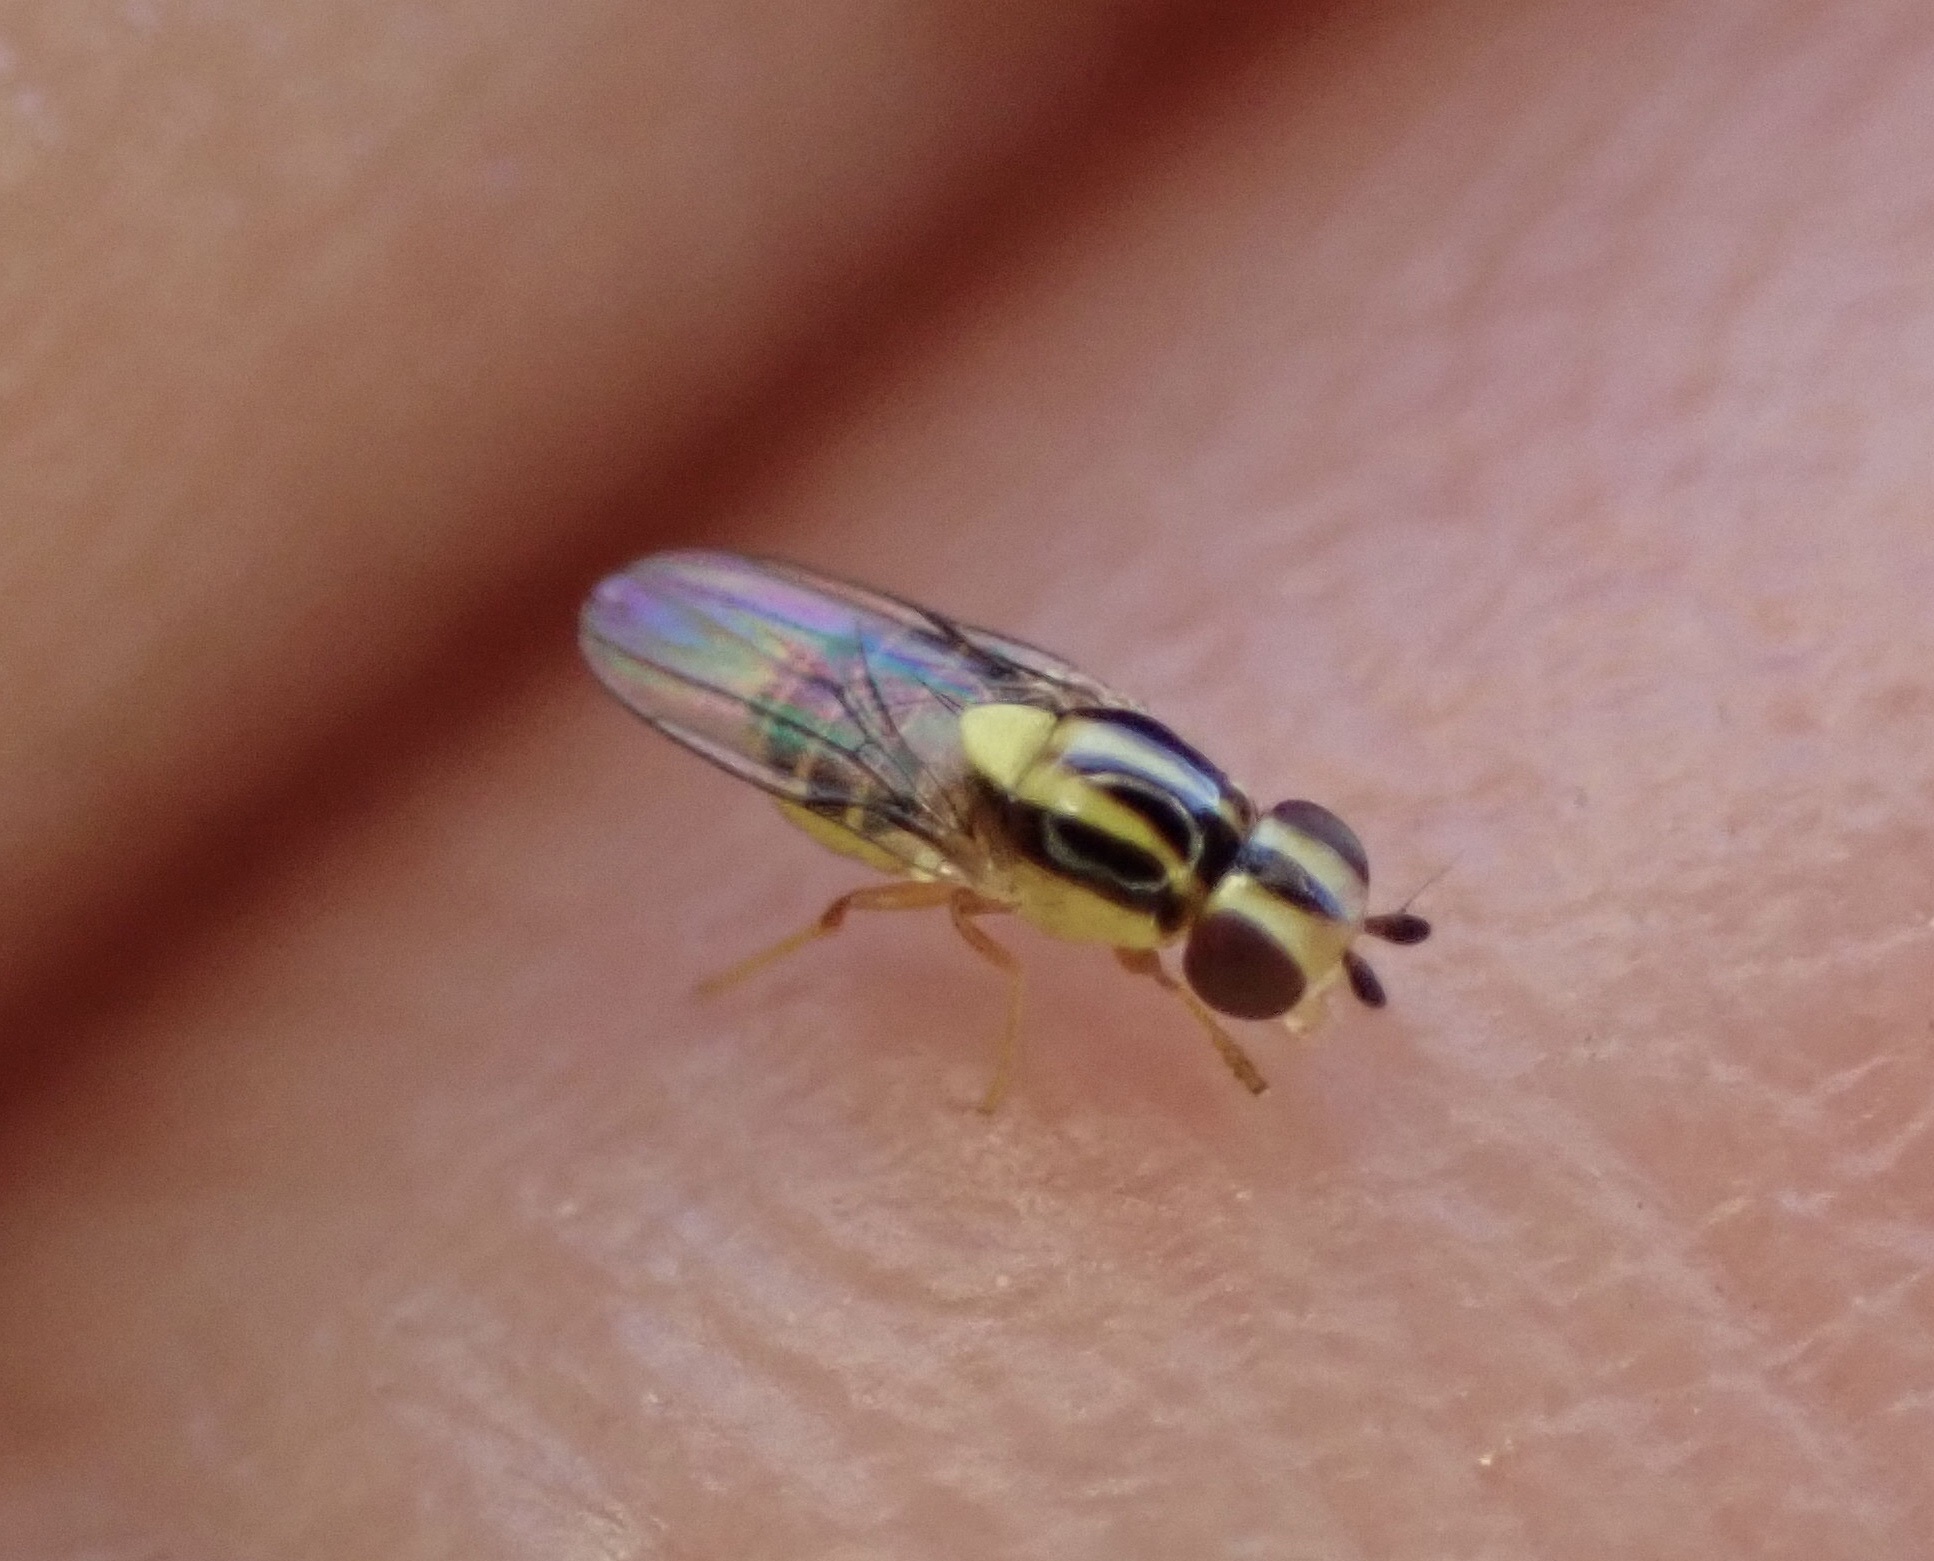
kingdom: Animalia
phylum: Arthropoda
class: Insecta
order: Diptera
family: Chloropidae
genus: Thaumatomyia
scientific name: Thaumatomyia glabra
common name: Chloropid fly
